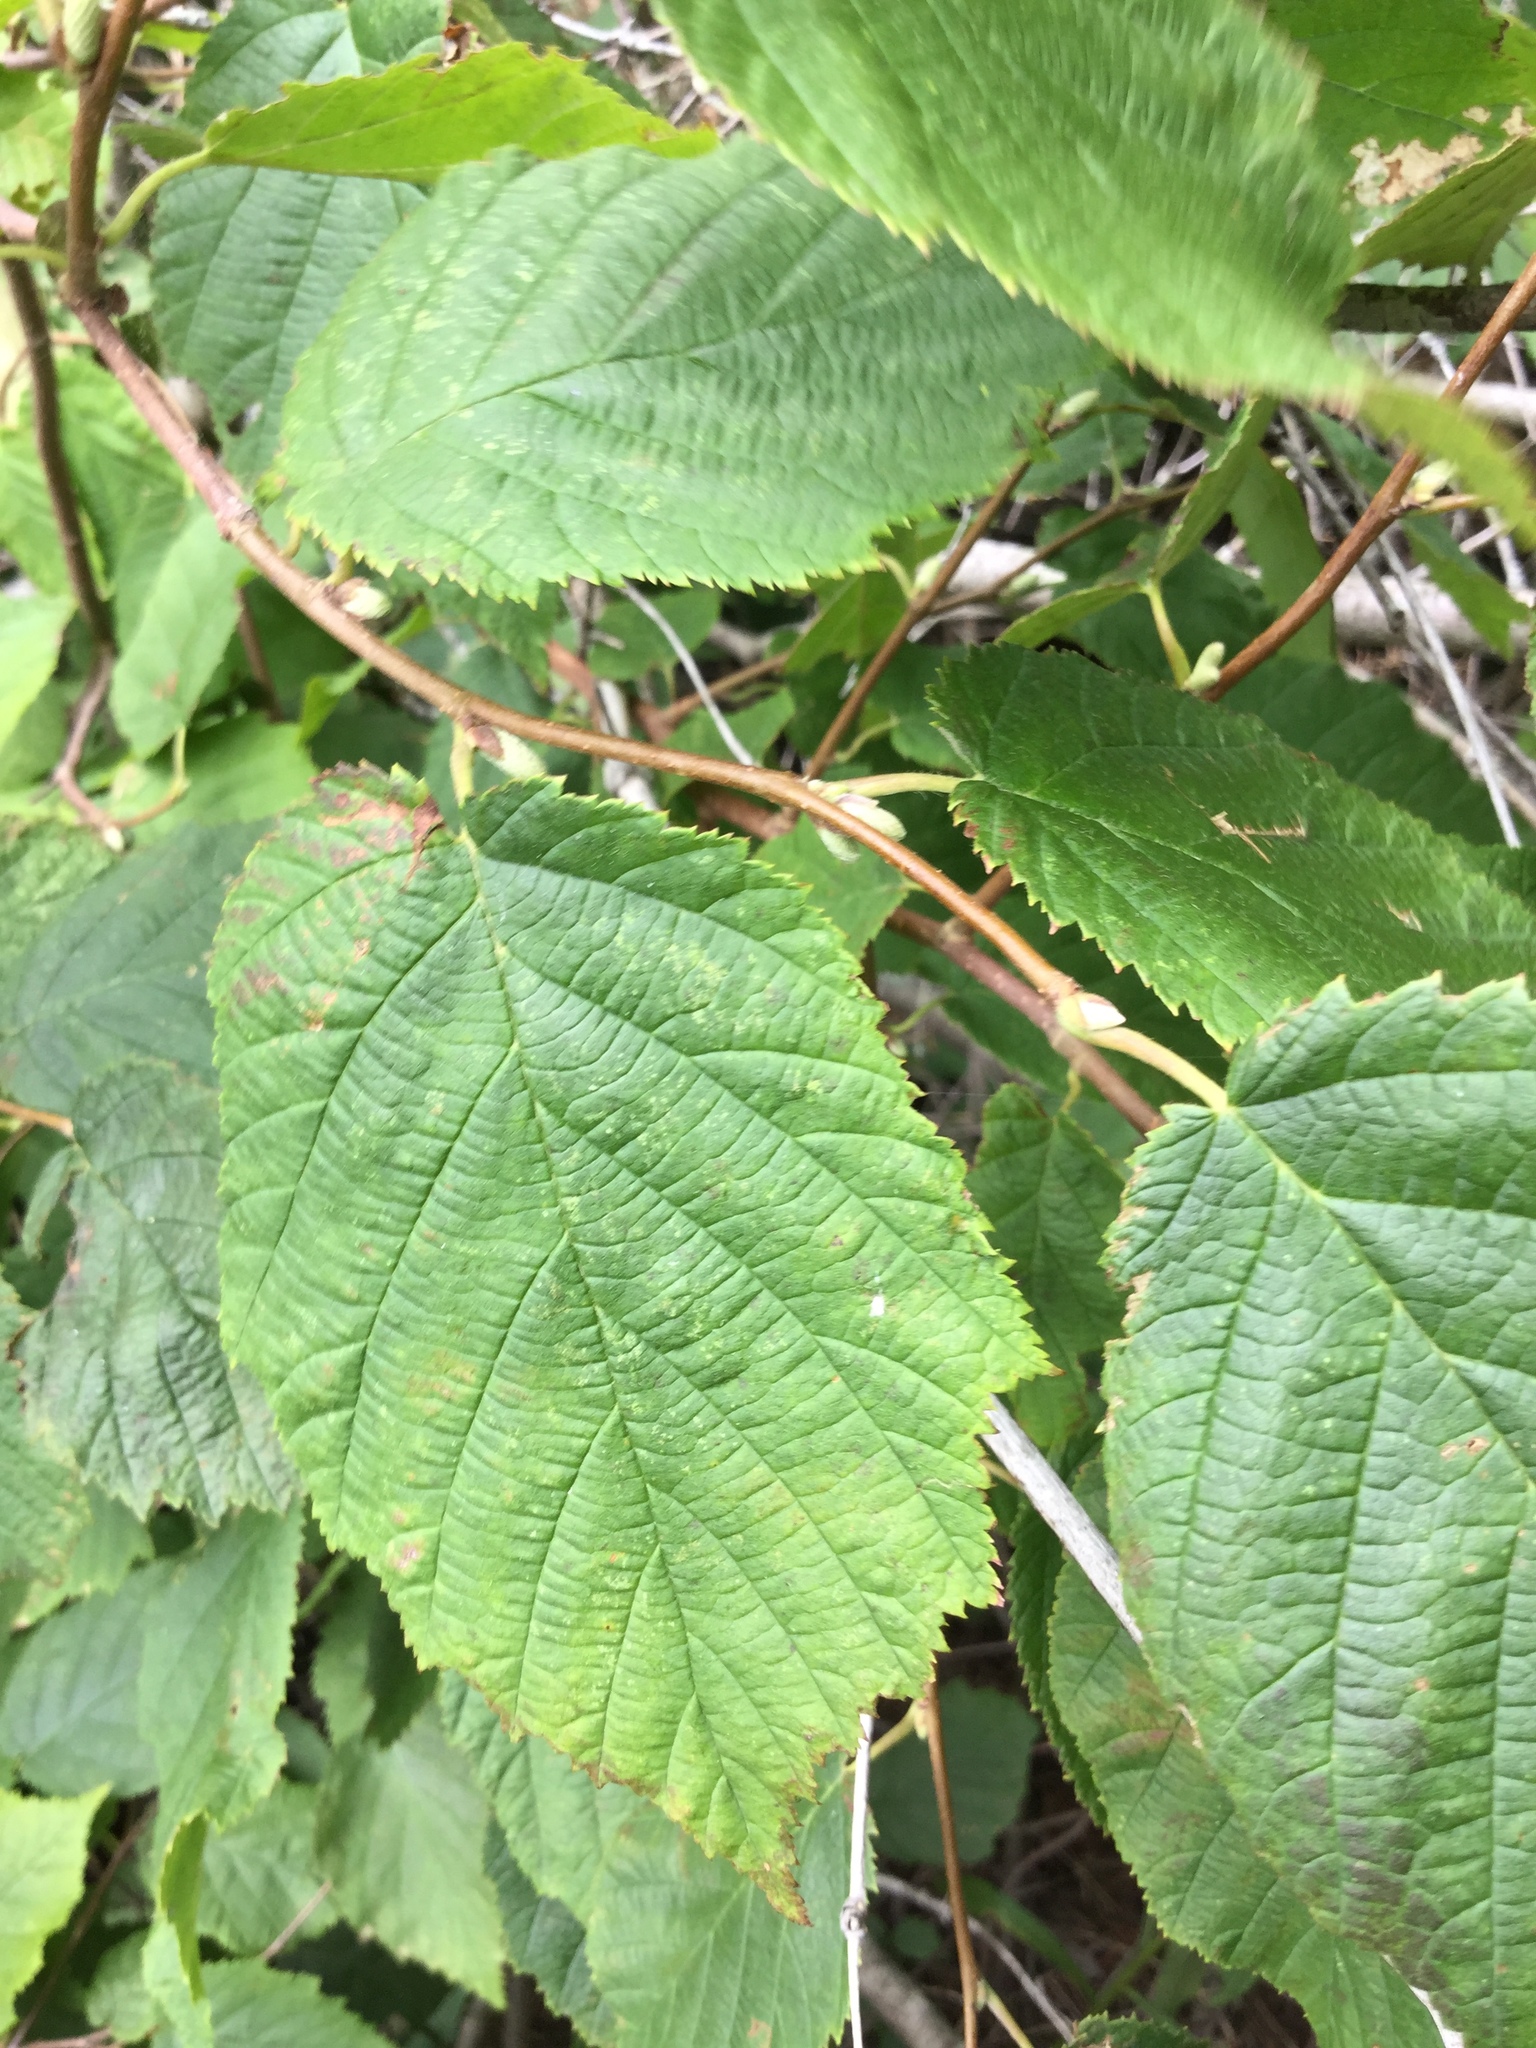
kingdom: Plantae
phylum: Tracheophyta
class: Magnoliopsida
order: Fagales
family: Betulaceae
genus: Corylus
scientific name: Corylus cornuta
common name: Beaked hazel
